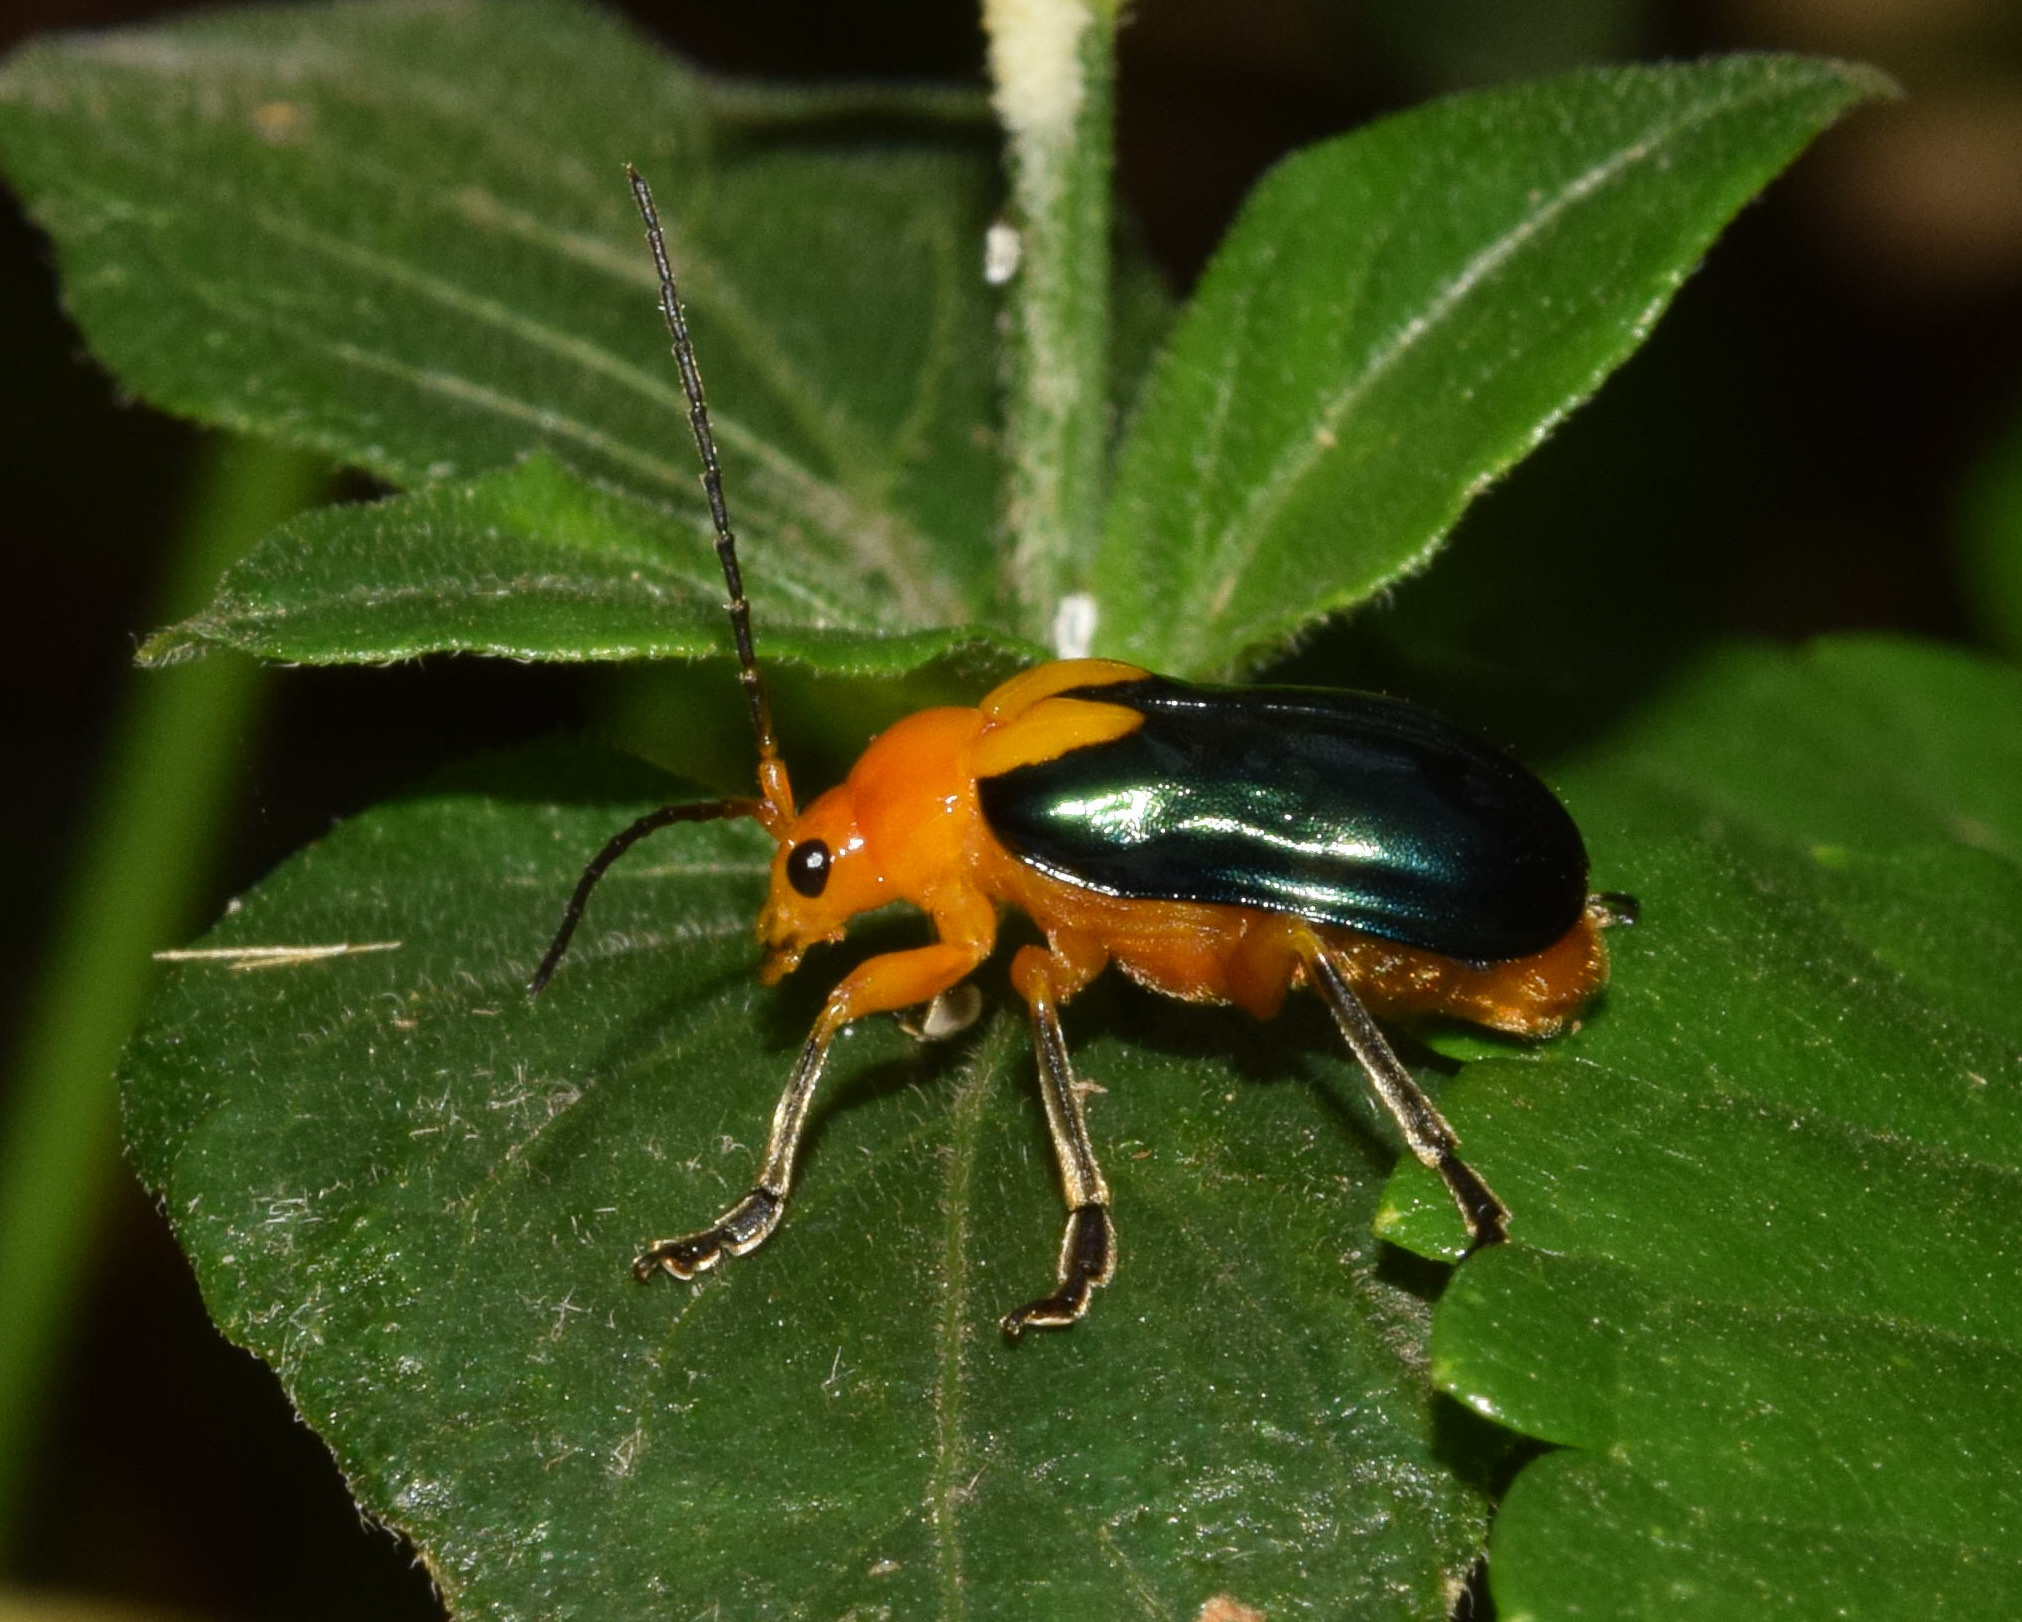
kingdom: Animalia
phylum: Arthropoda
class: Insecta
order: Coleoptera
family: Chrysomelidae
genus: Cannonia
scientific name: Cannonia
